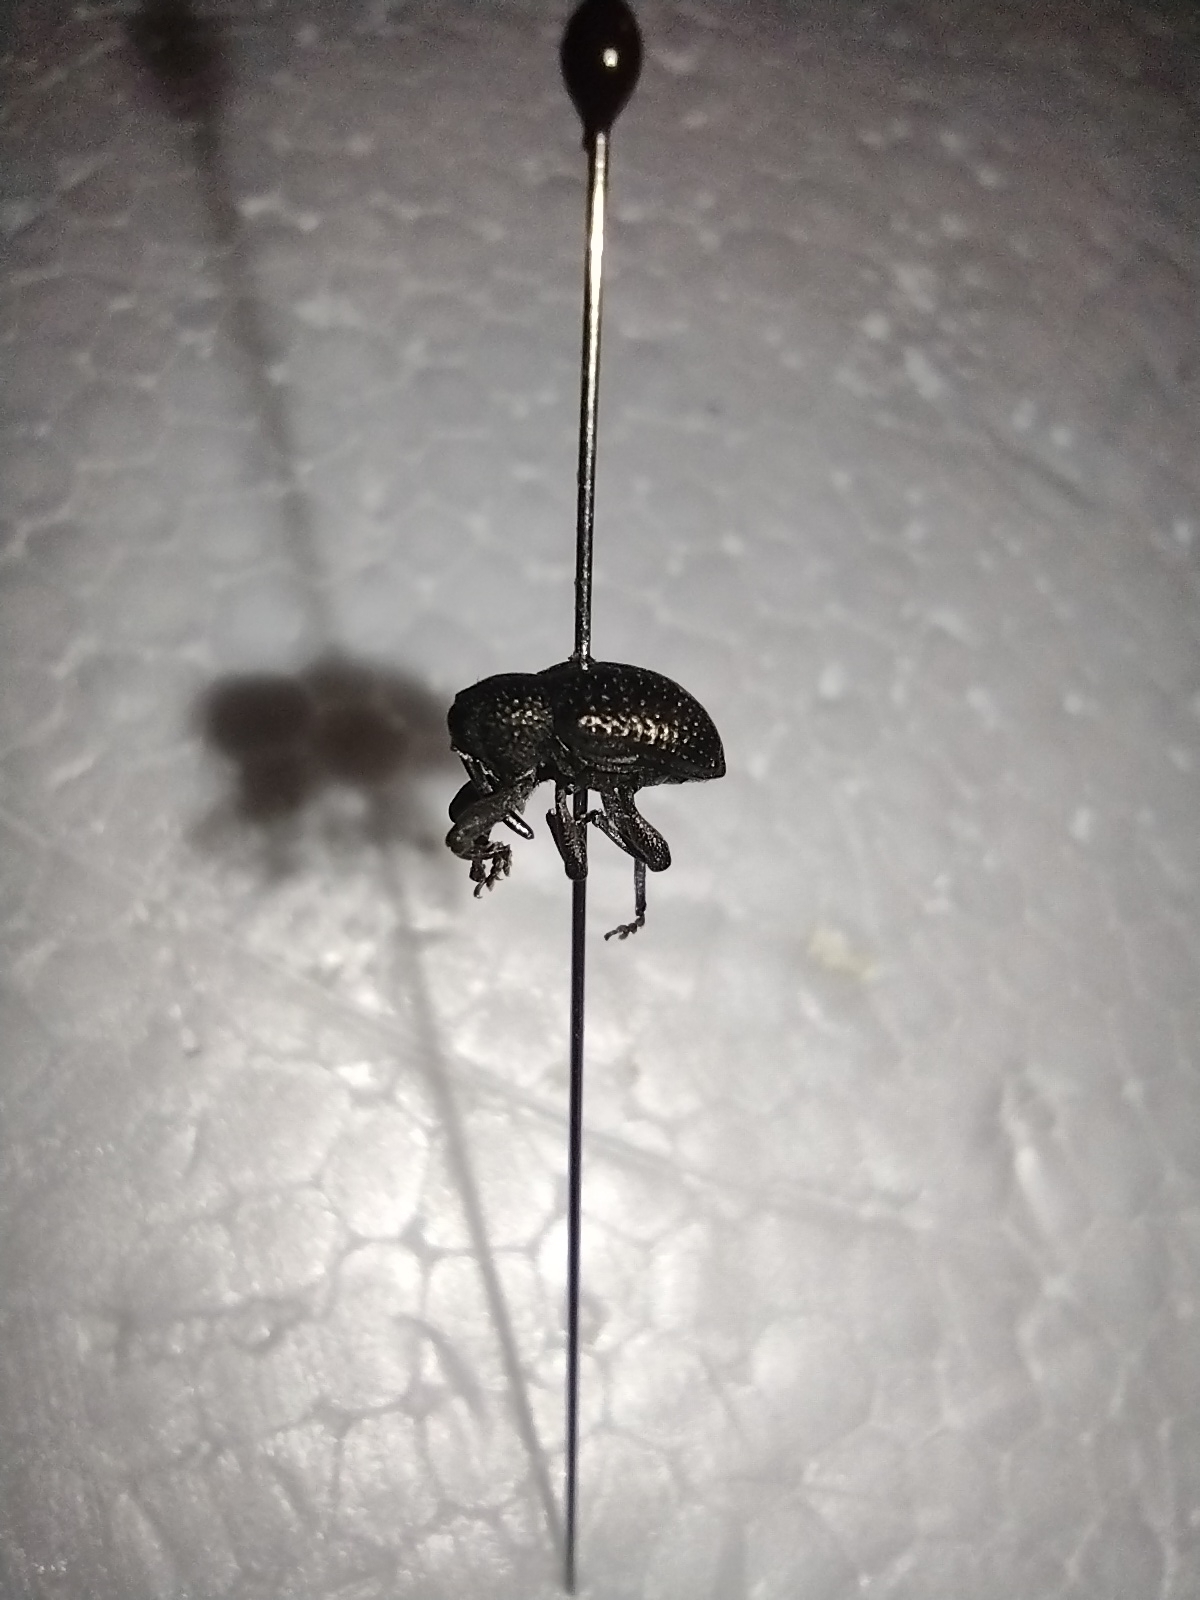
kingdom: Animalia
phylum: Arthropoda
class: Insecta
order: Coleoptera
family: Curculionidae
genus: Chalcodermus
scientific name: Chalcodermus aeneus
